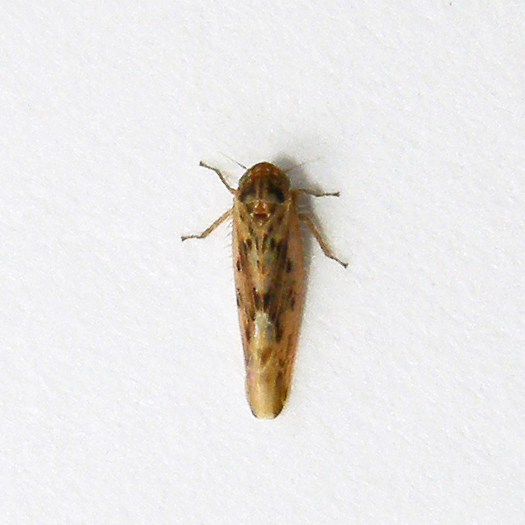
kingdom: Animalia
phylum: Arthropoda
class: Insecta
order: Hemiptera
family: Cicadellidae
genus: Balclutha
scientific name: Balclutha confluens
